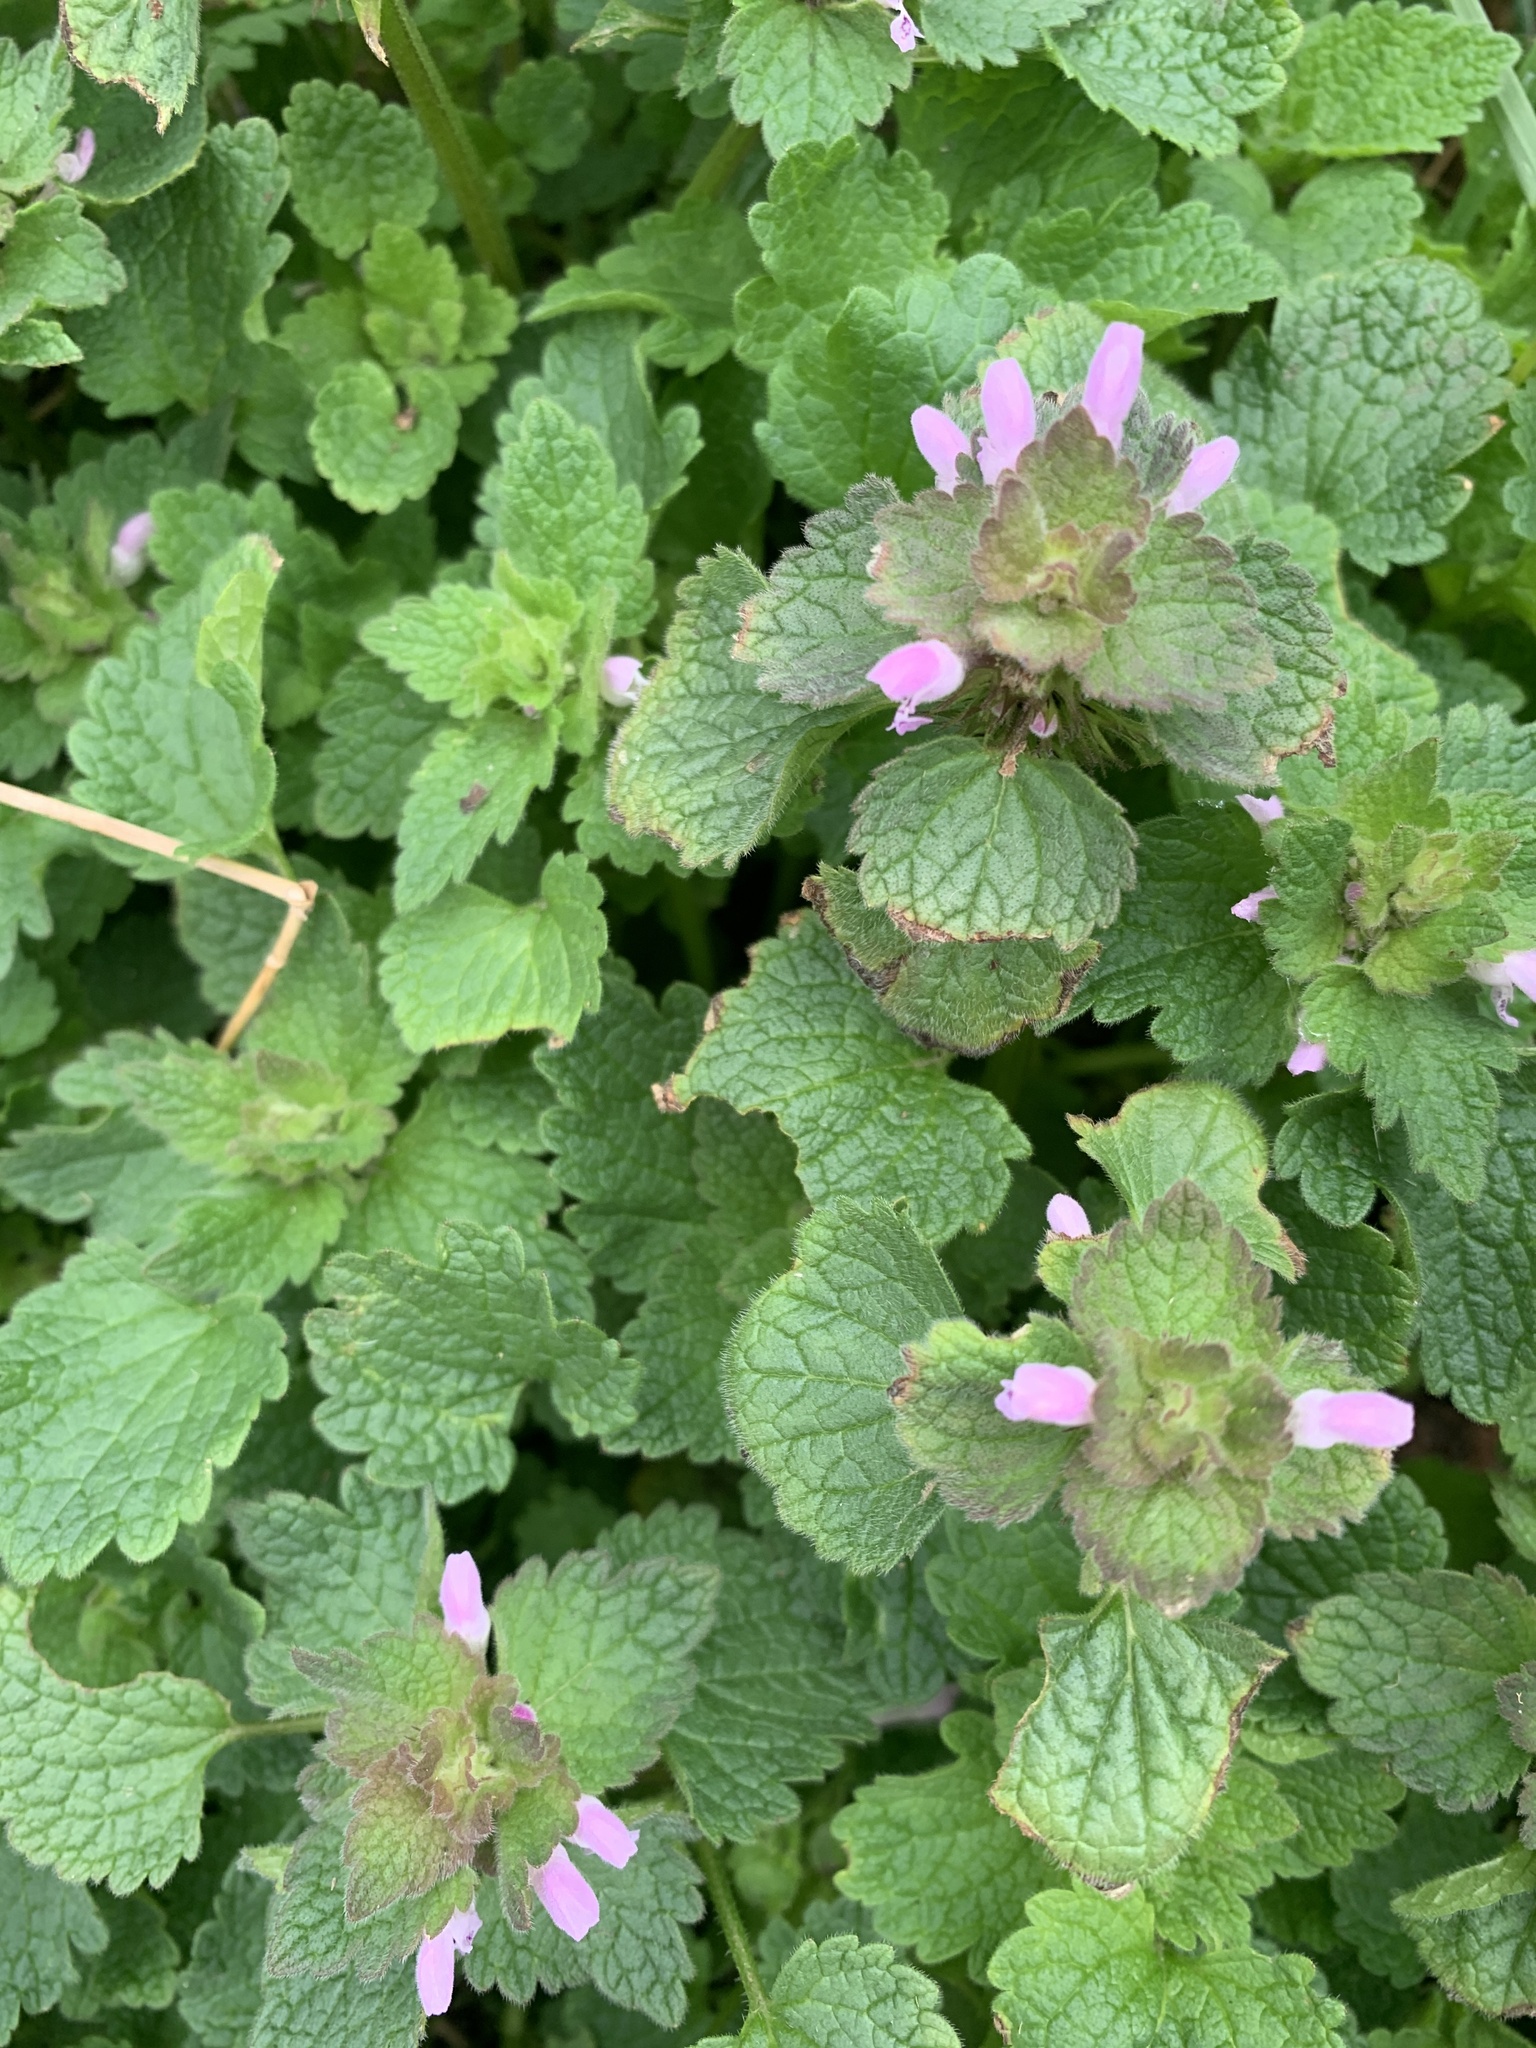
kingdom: Plantae
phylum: Tracheophyta
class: Magnoliopsida
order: Lamiales
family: Lamiaceae
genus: Lamium
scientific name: Lamium purpureum
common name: Red dead-nettle
